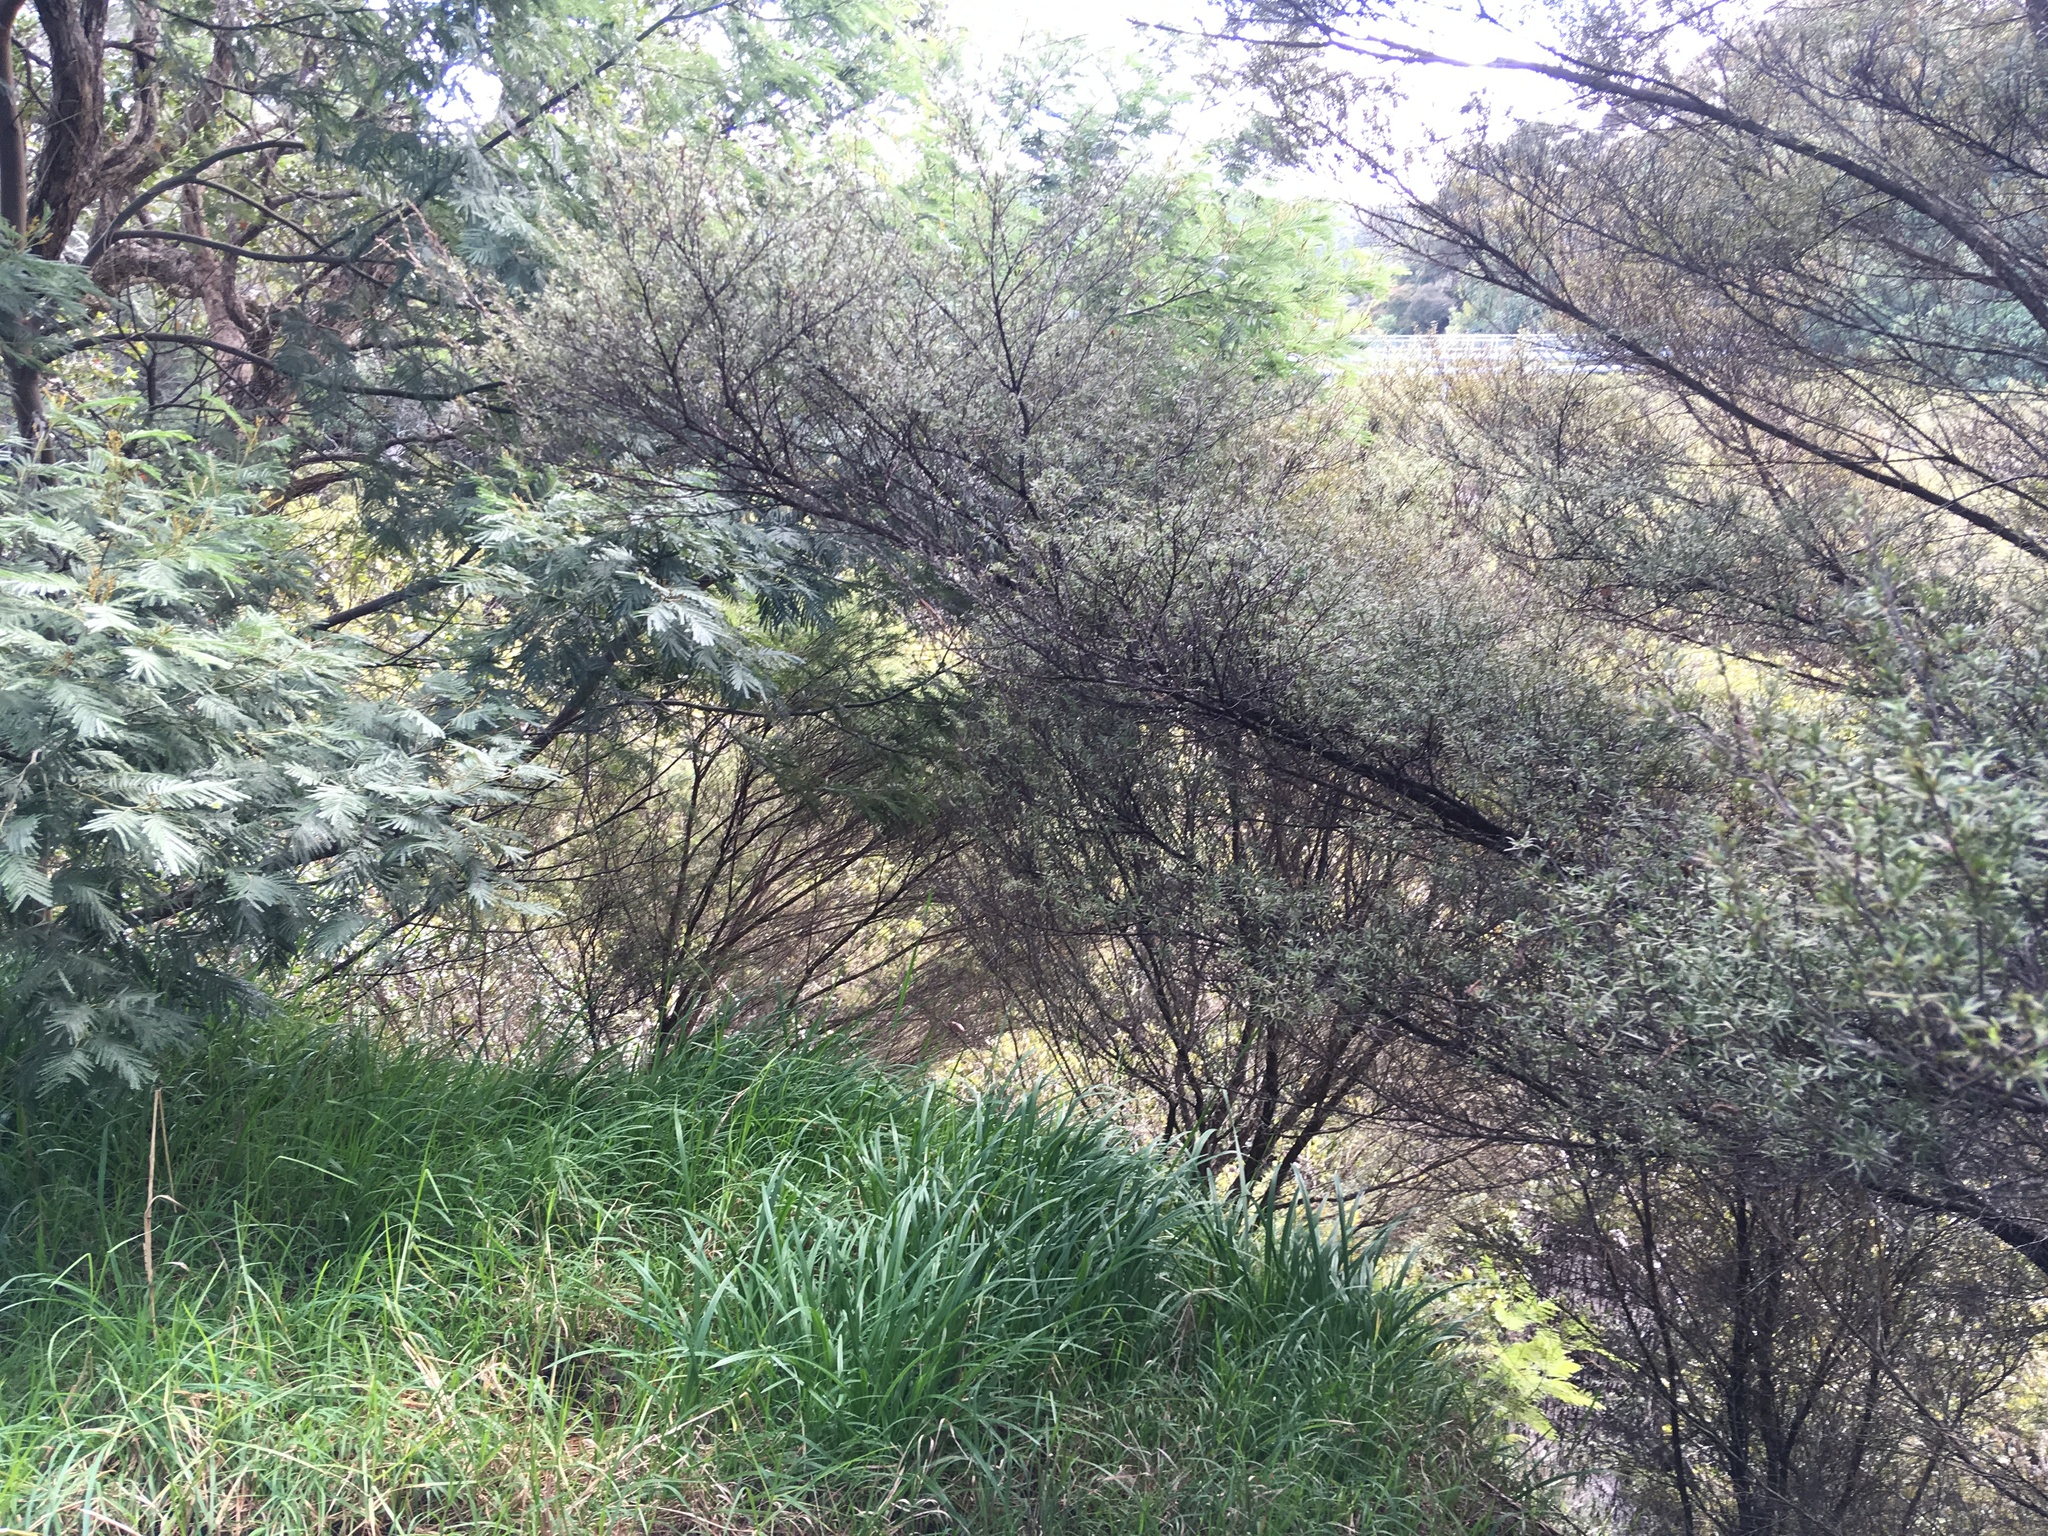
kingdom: Plantae
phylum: Tracheophyta
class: Magnoliopsida
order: Fabales
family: Fabaceae
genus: Paraserianthes
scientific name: Paraserianthes lophantha
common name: Plume albizia
